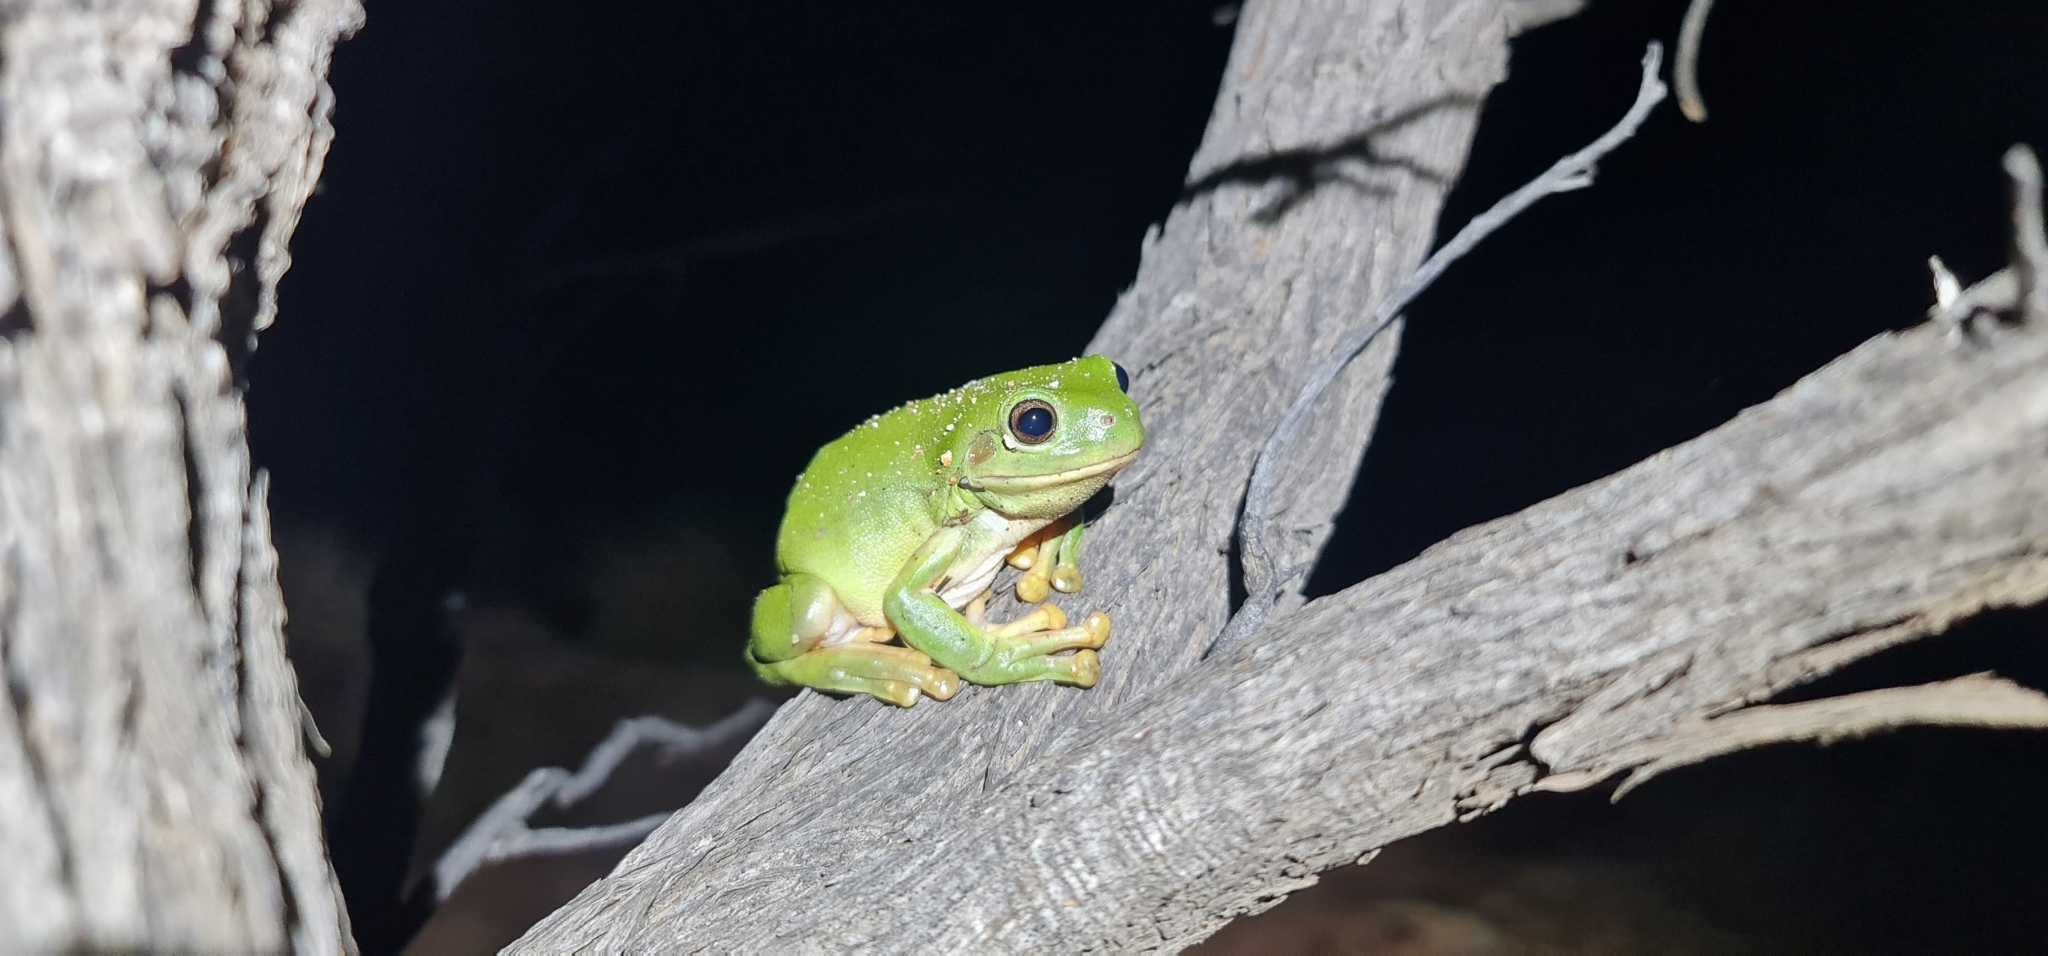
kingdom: Animalia
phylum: Chordata
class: Amphibia
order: Anura
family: Pelodryadidae
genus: Ranoidea
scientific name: Ranoidea caerulea
